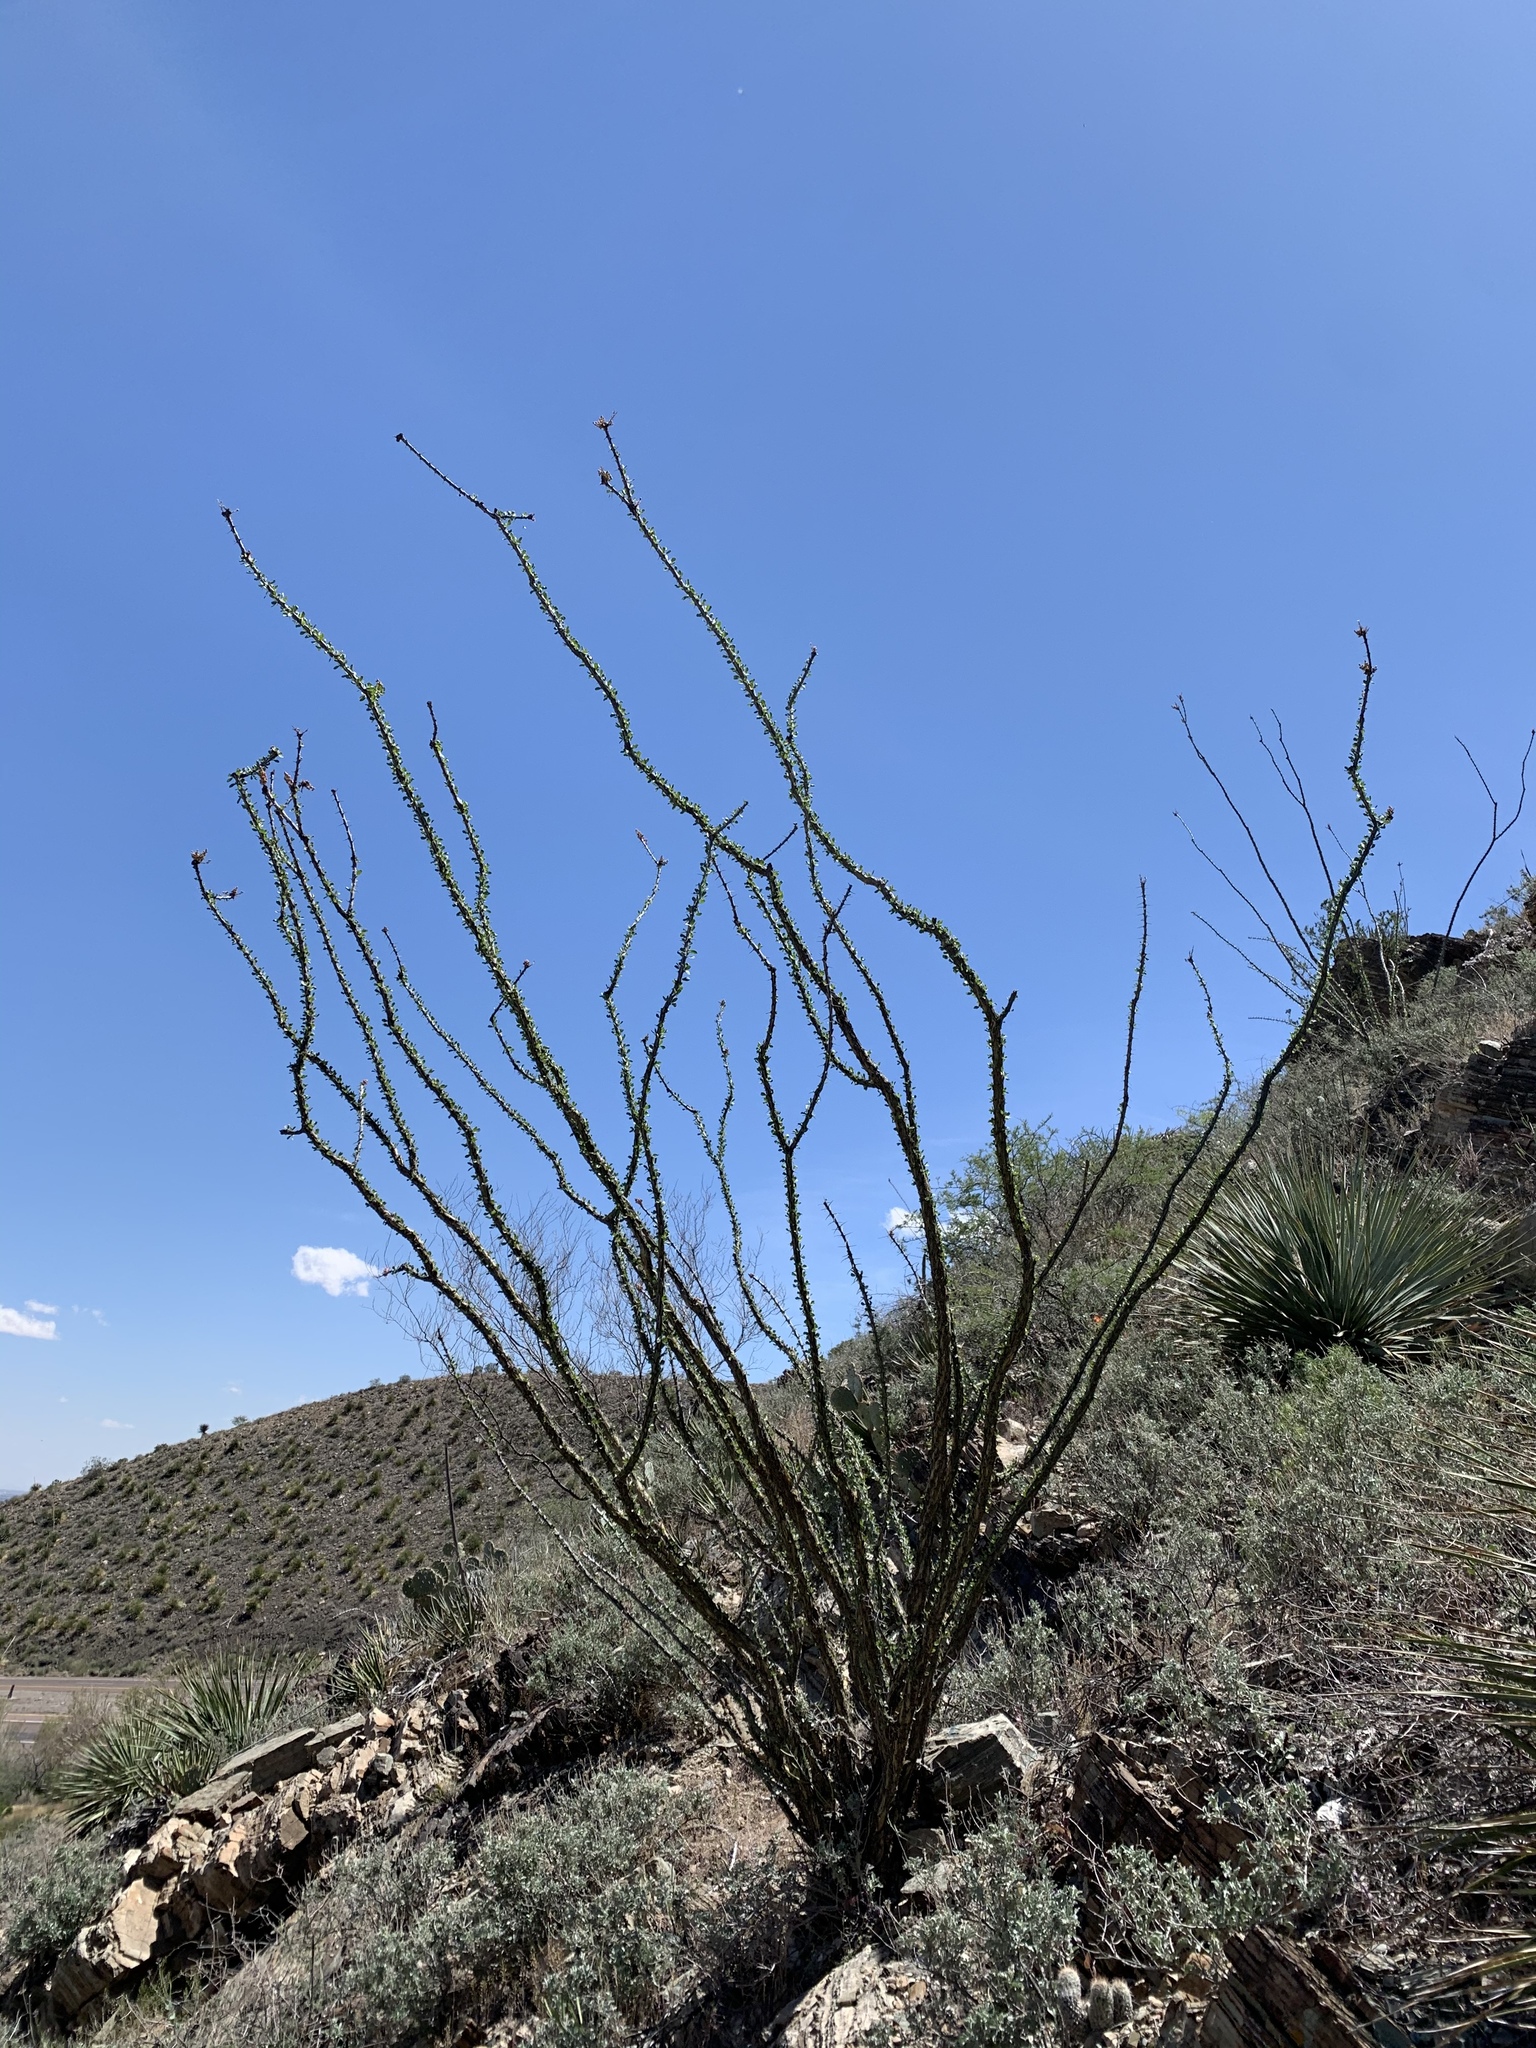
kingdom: Plantae
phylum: Tracheophyta
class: Magnoliopsida
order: Ericales
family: Fouquieriaceae
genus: Fouquieria
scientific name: Fouquieria splendens
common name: Vine-cactus
